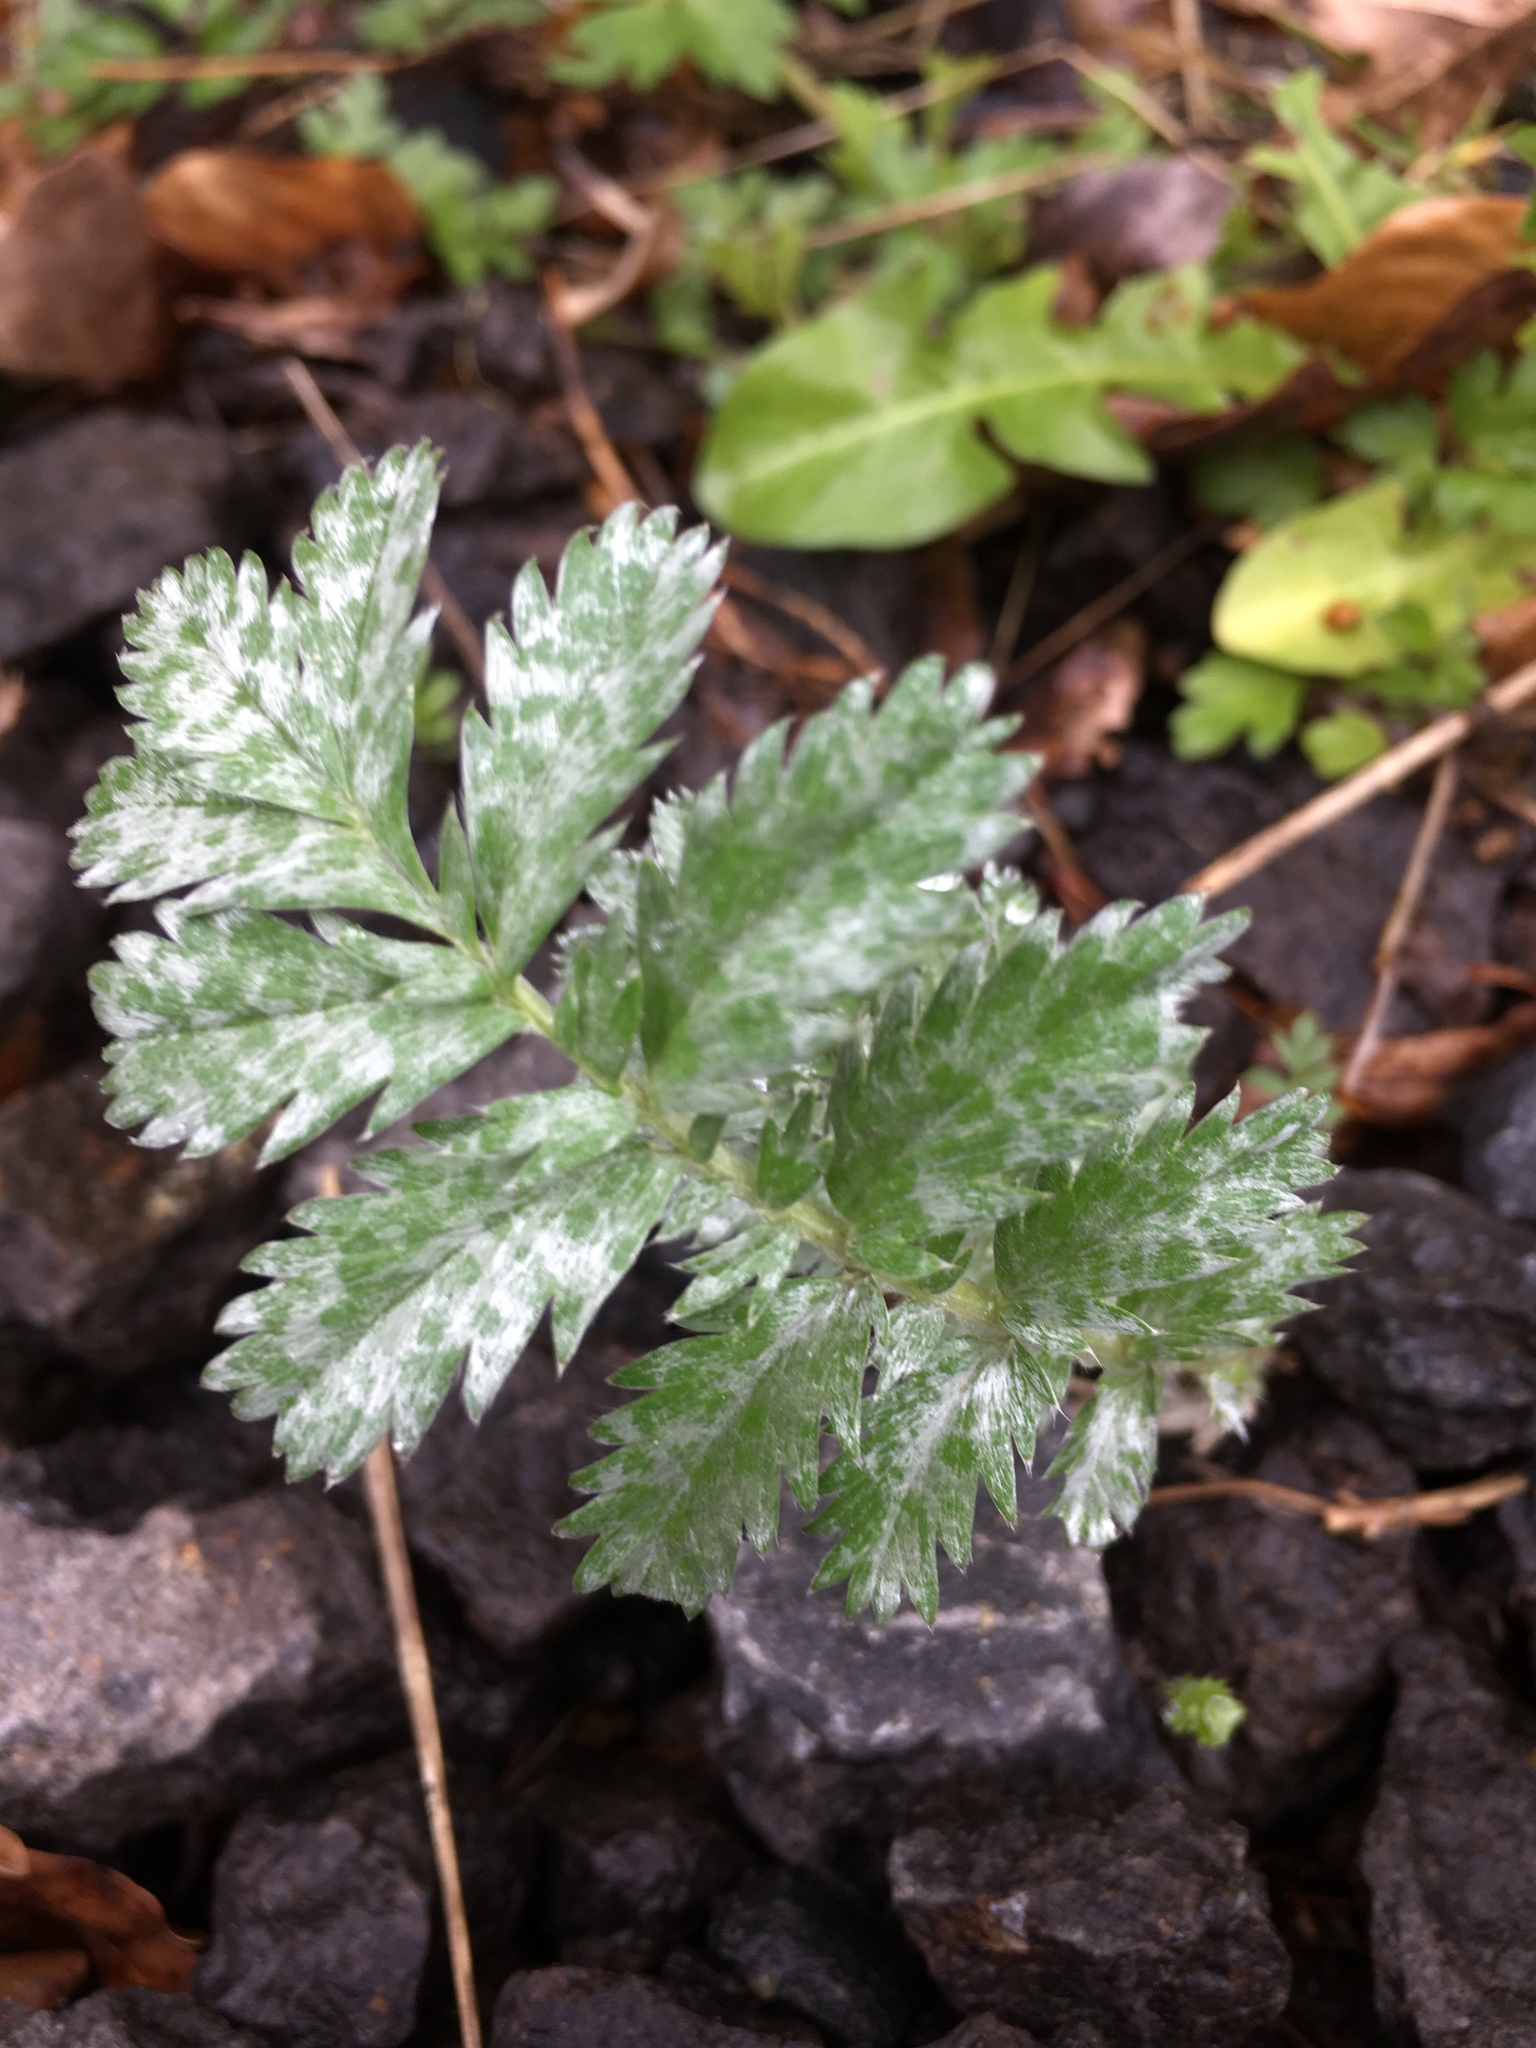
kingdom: Plantae
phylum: Tracheophyta
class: Magnoliopsida
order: Rosales
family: Rosaceae
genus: Argentina
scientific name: Argentina anserina
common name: Common silverweed
